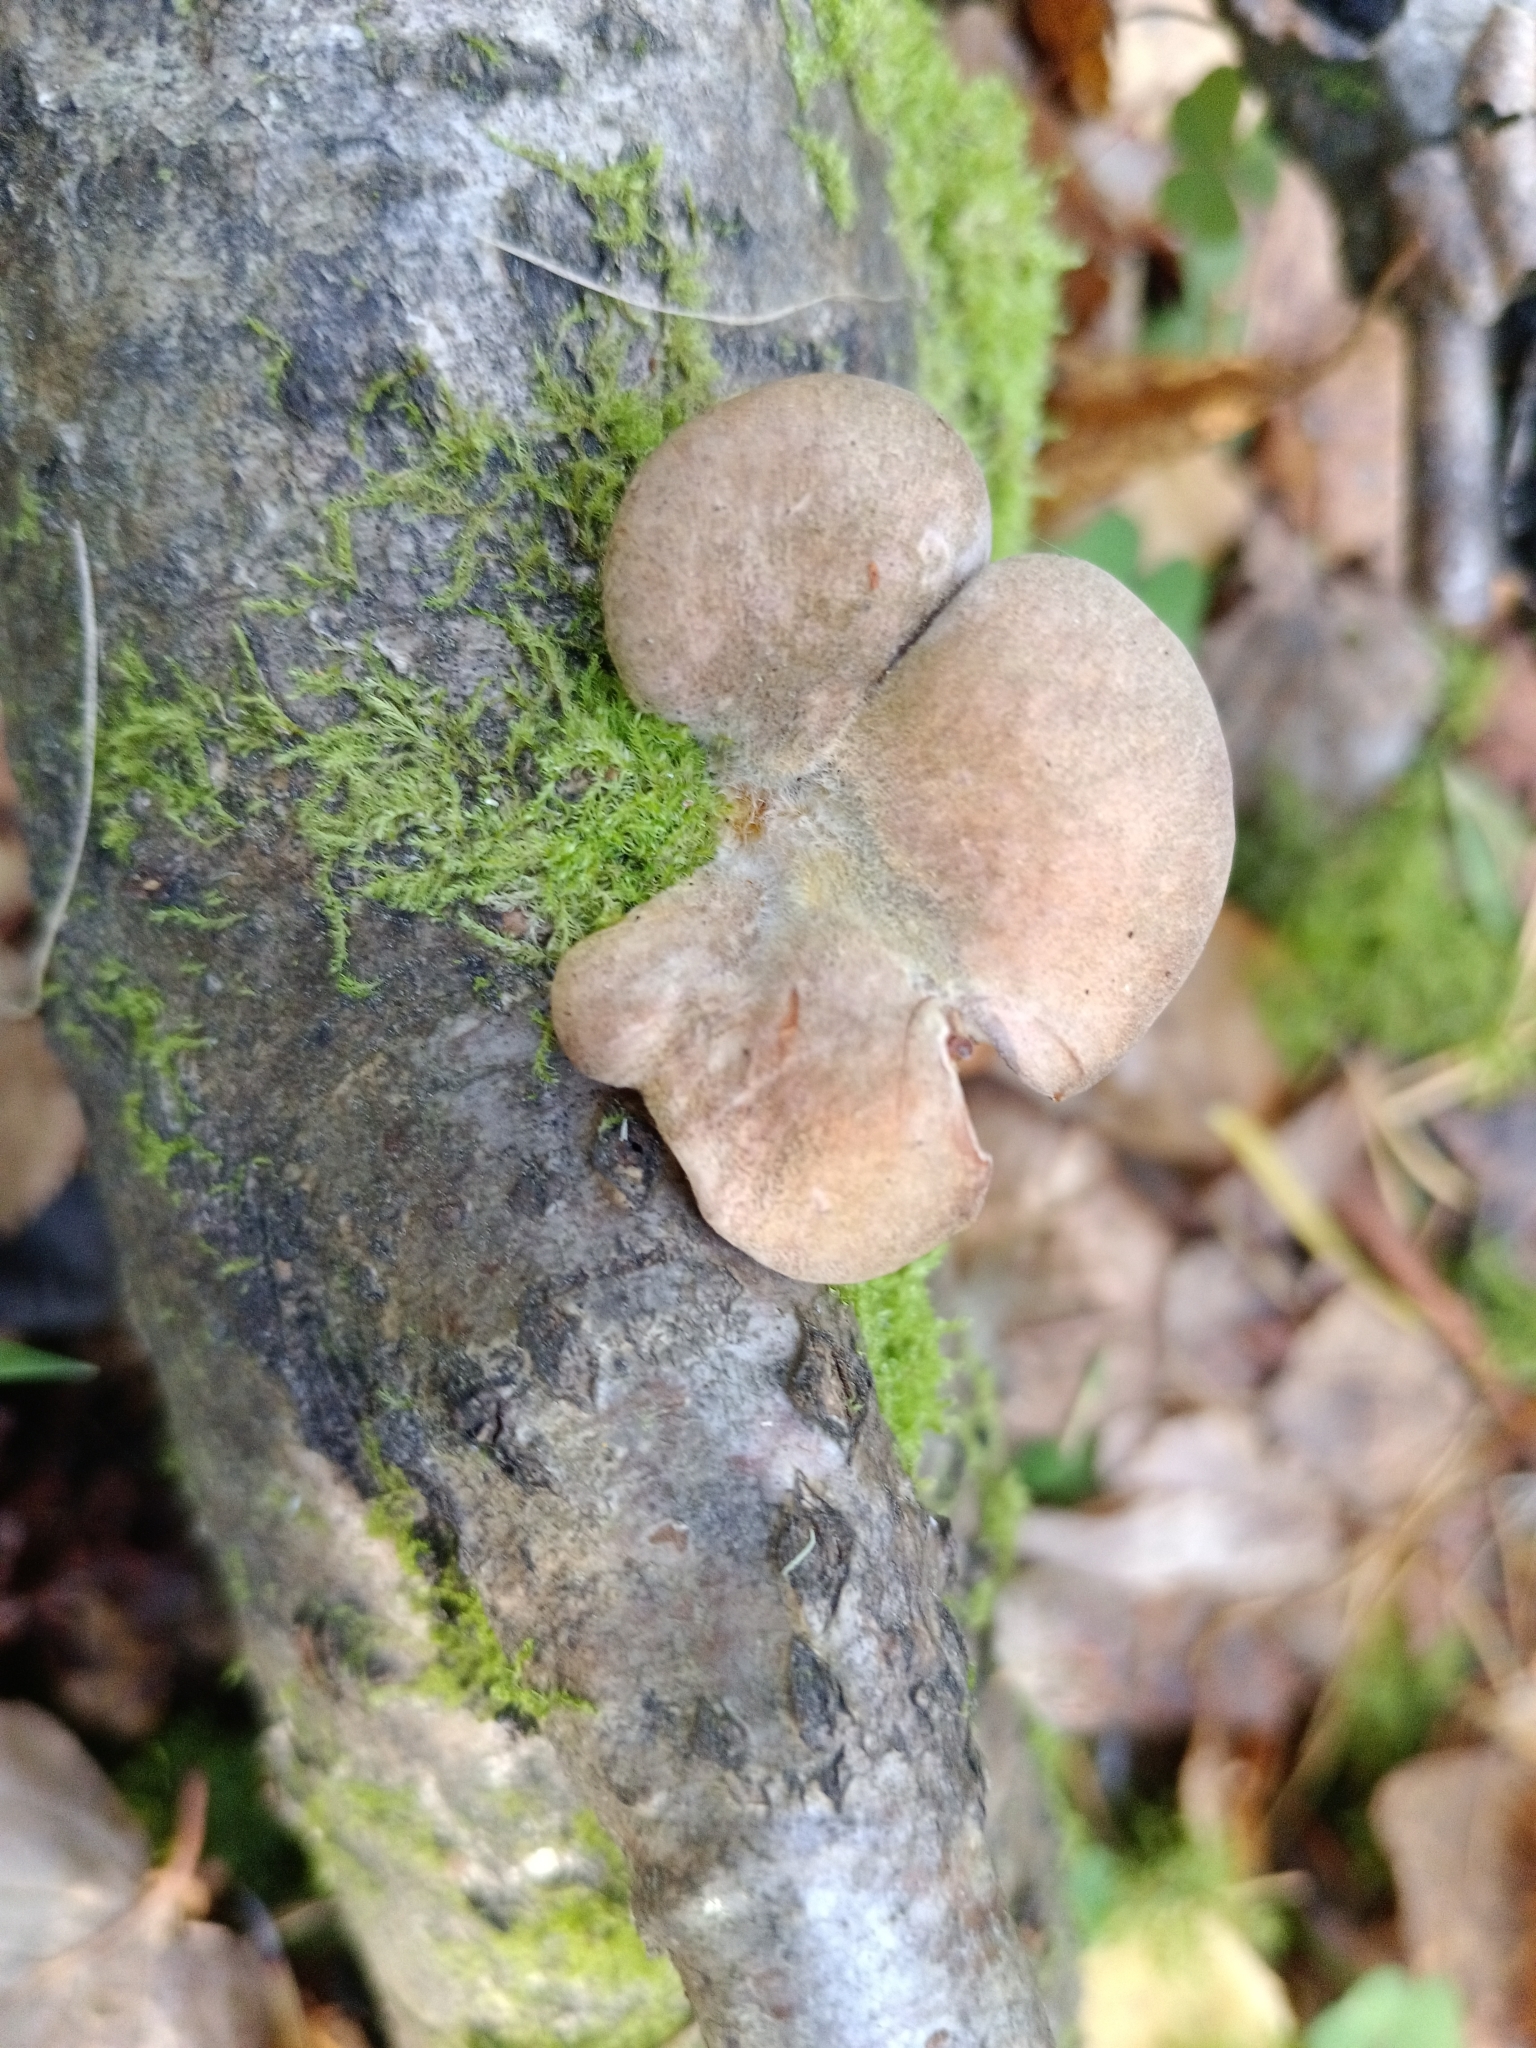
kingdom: Fungi
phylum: Basidiomycota
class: Agaricomycetes
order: Agaricales
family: Sarcomyxaceae
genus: Sarcomyxa
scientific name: Sarcomyxa serotina
